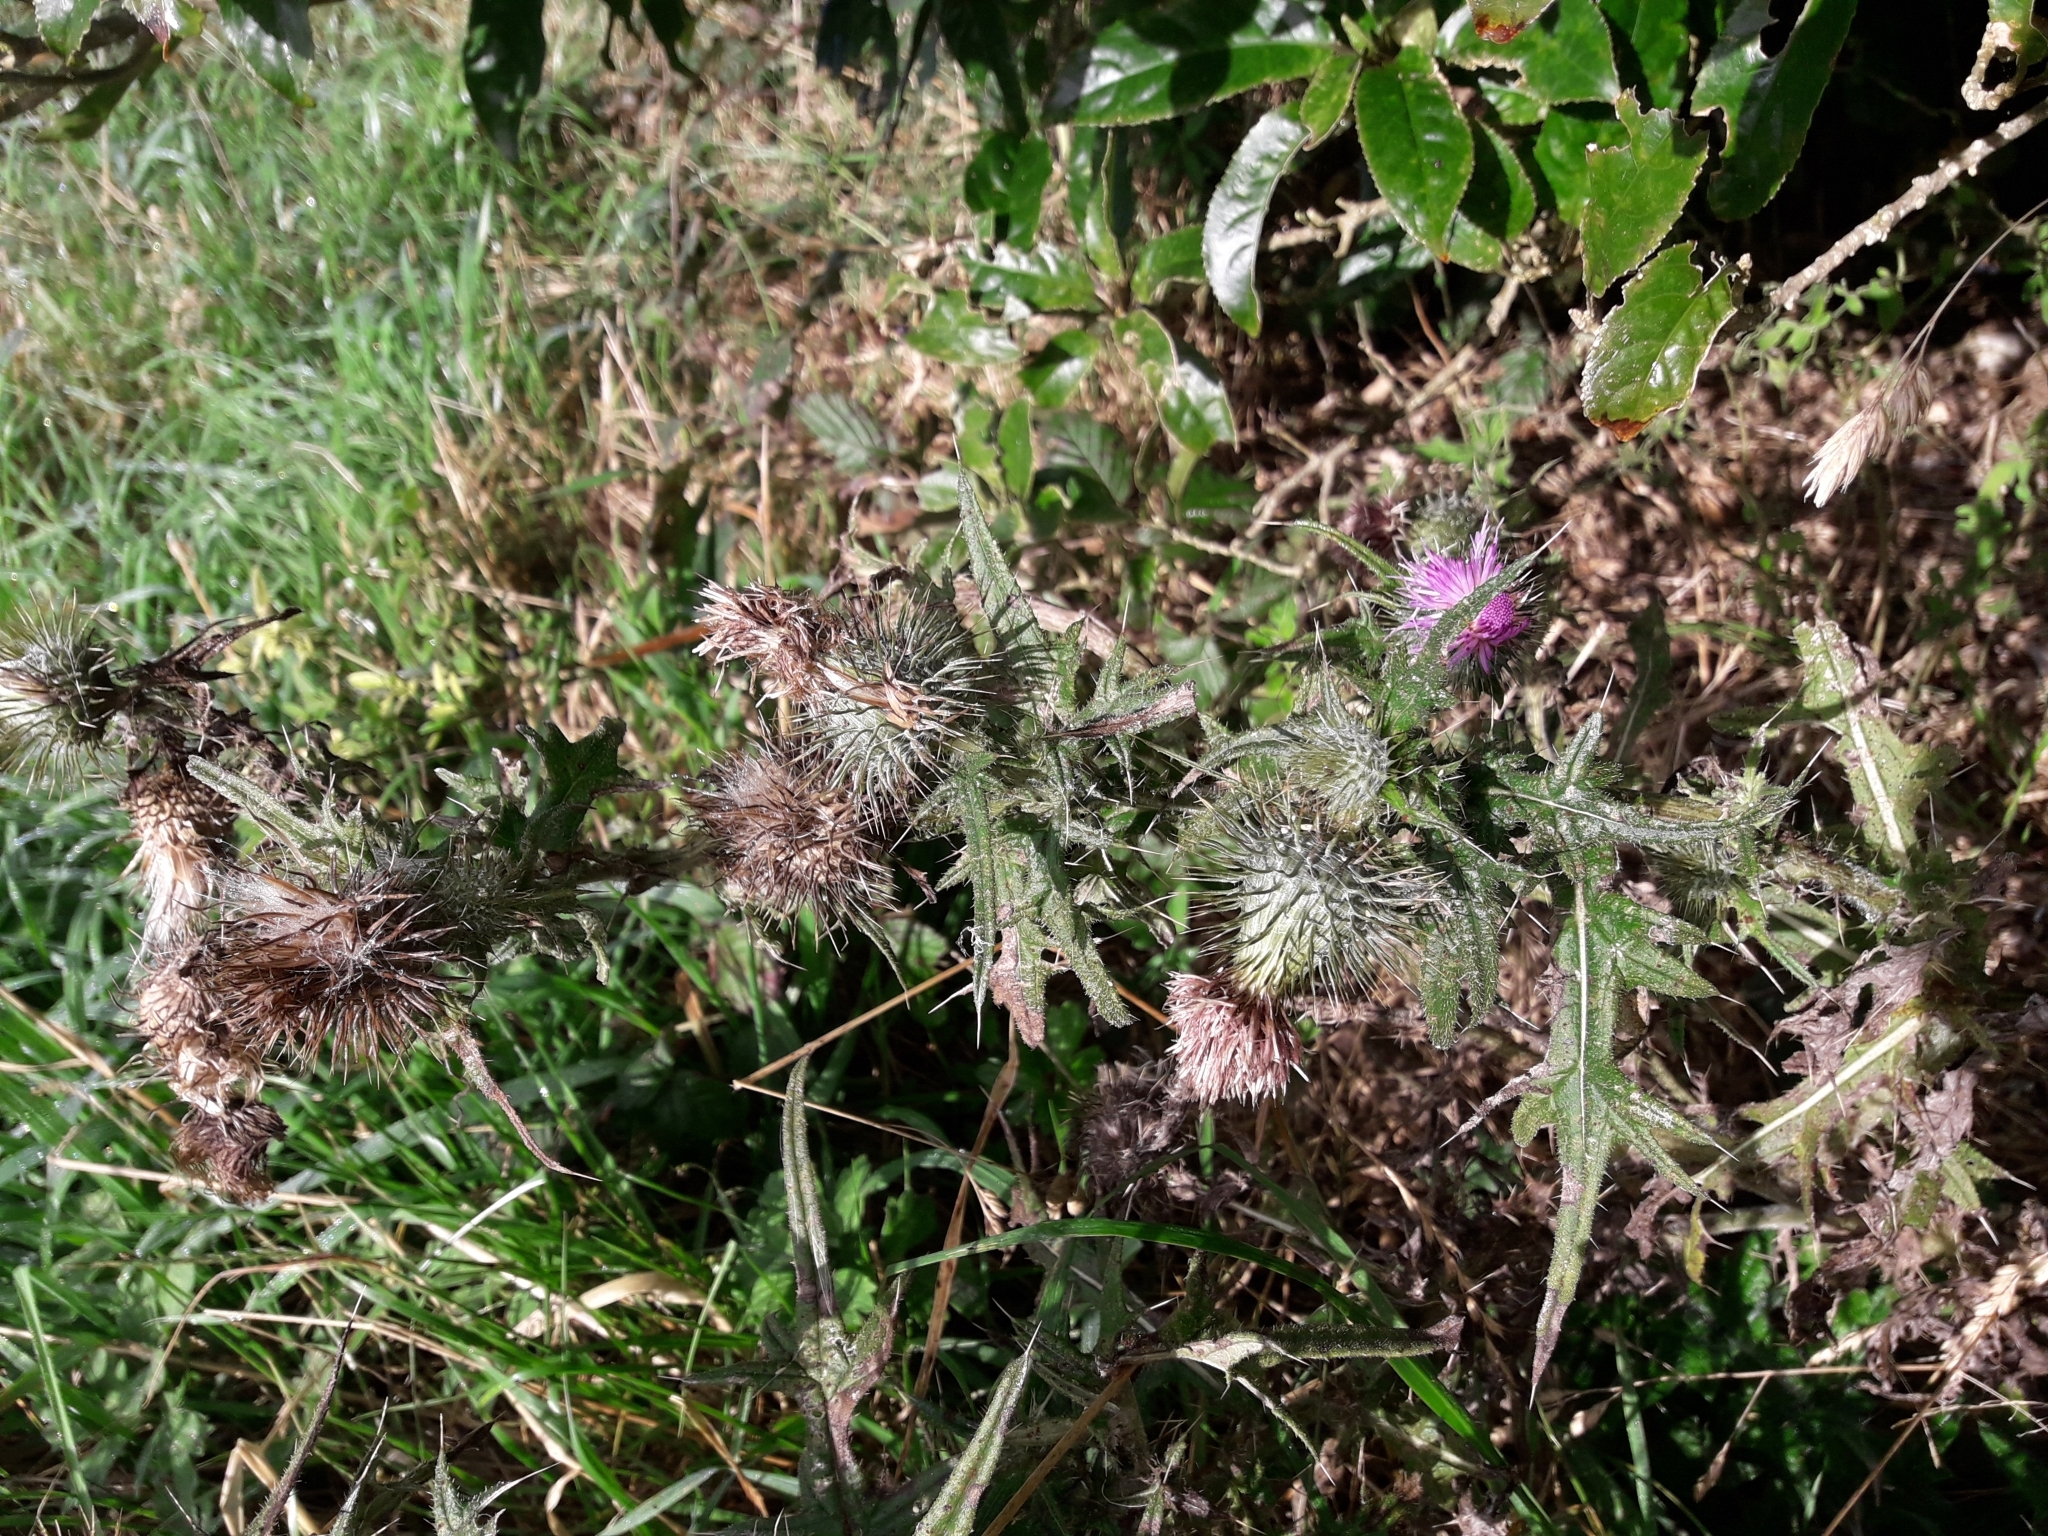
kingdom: Plantae
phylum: Tracheophyta
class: Magnoliopsida
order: Asterales
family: Asteraceae
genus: Cirsium
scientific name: Cirsium vulgare
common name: Bull thistle
